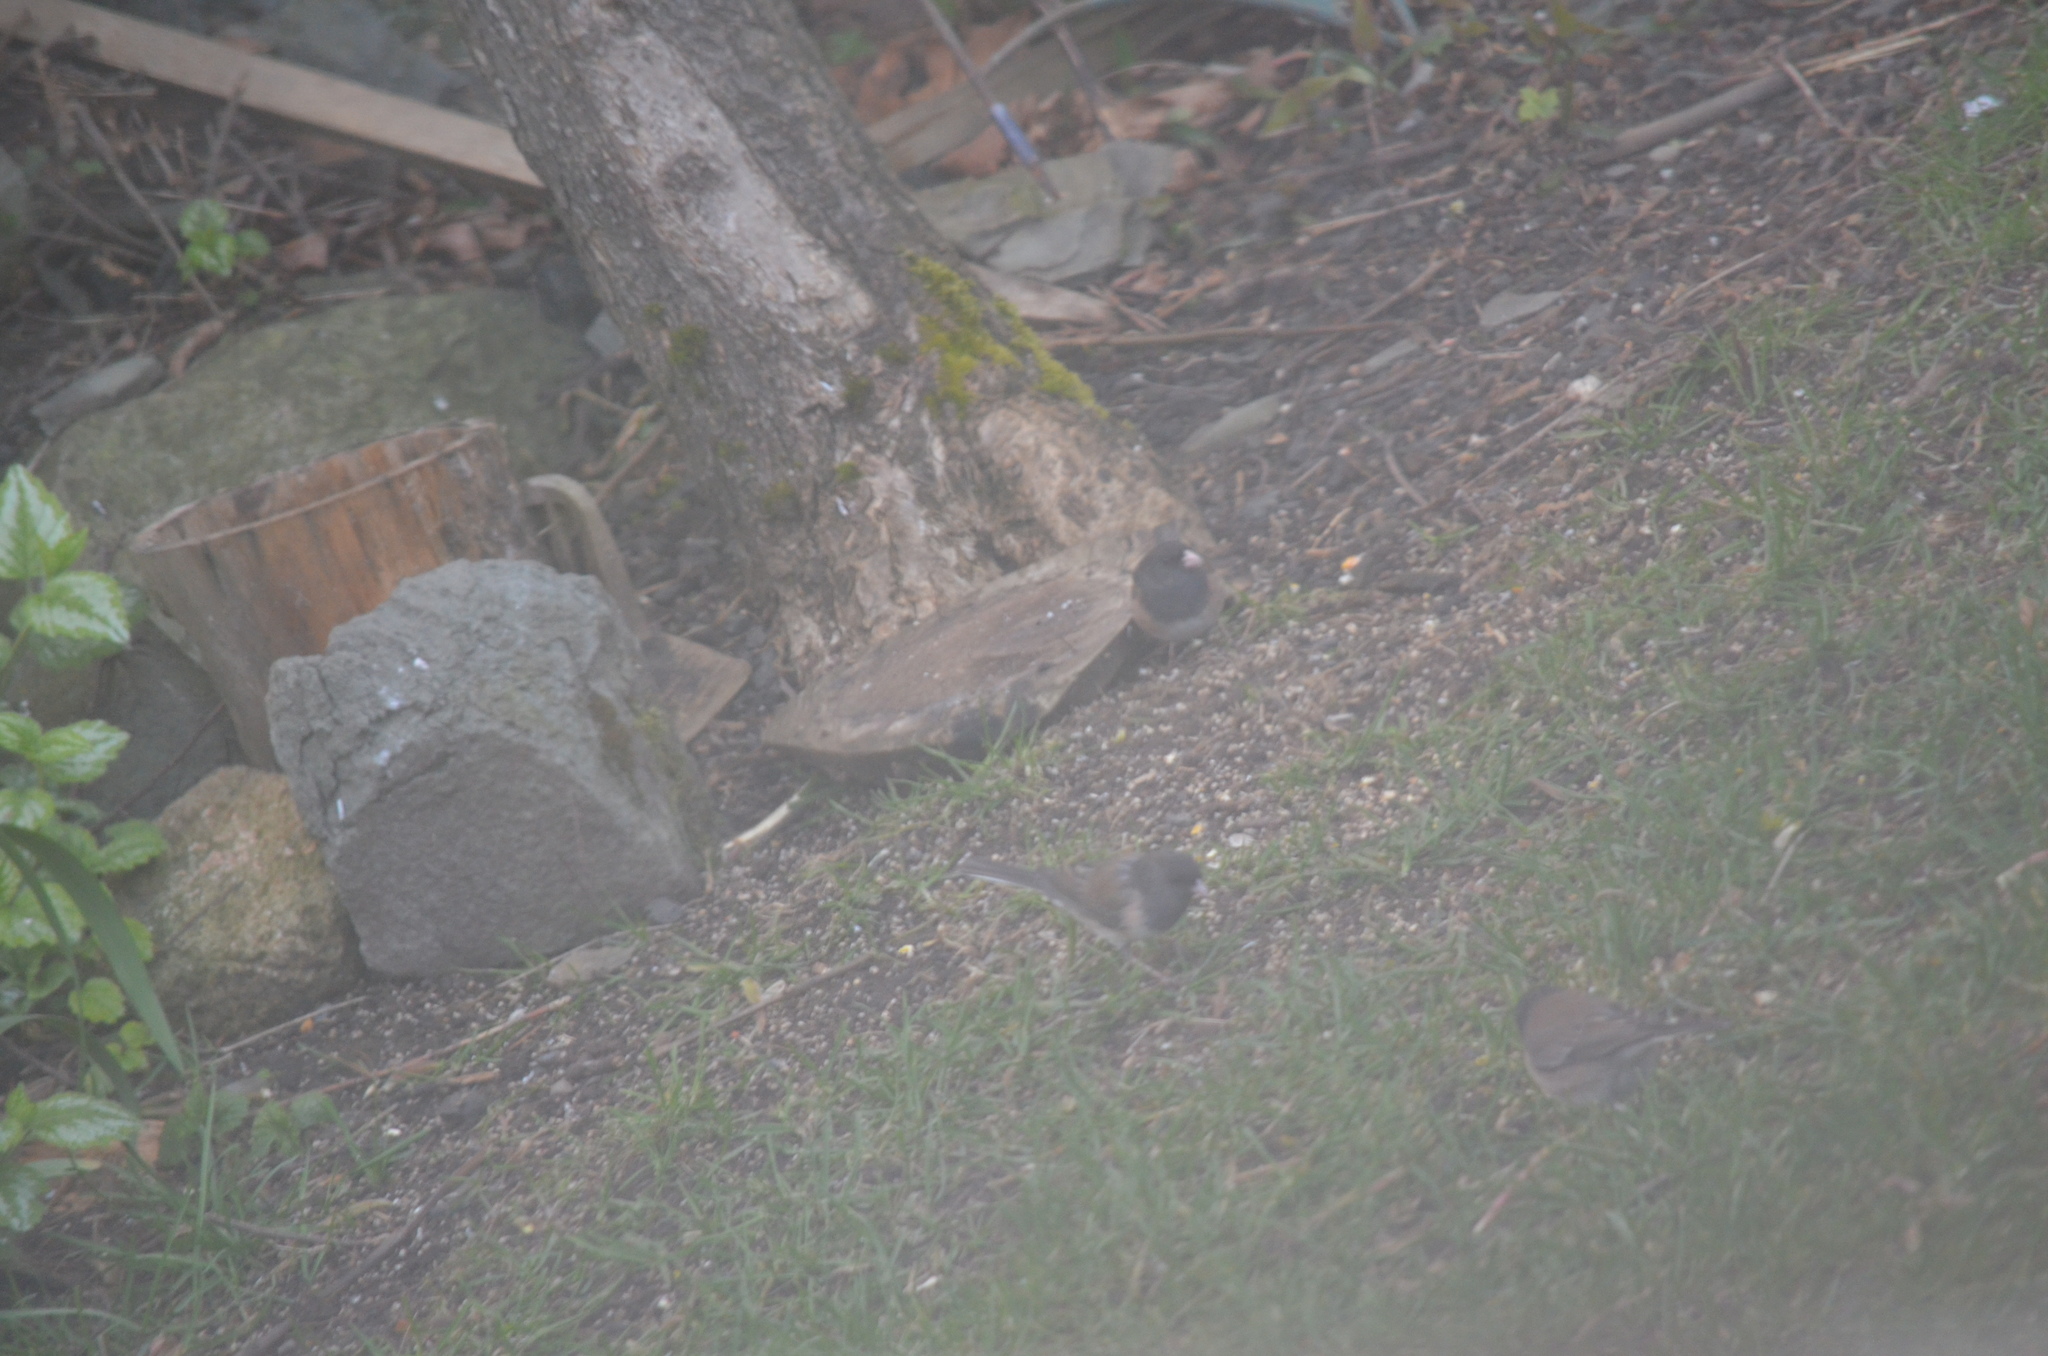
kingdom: Animalia
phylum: Chordata
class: Aves
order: Passeriformes
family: Passerellidae
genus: Junco
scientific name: Junco hyemalis
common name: Dark-eyed junco
